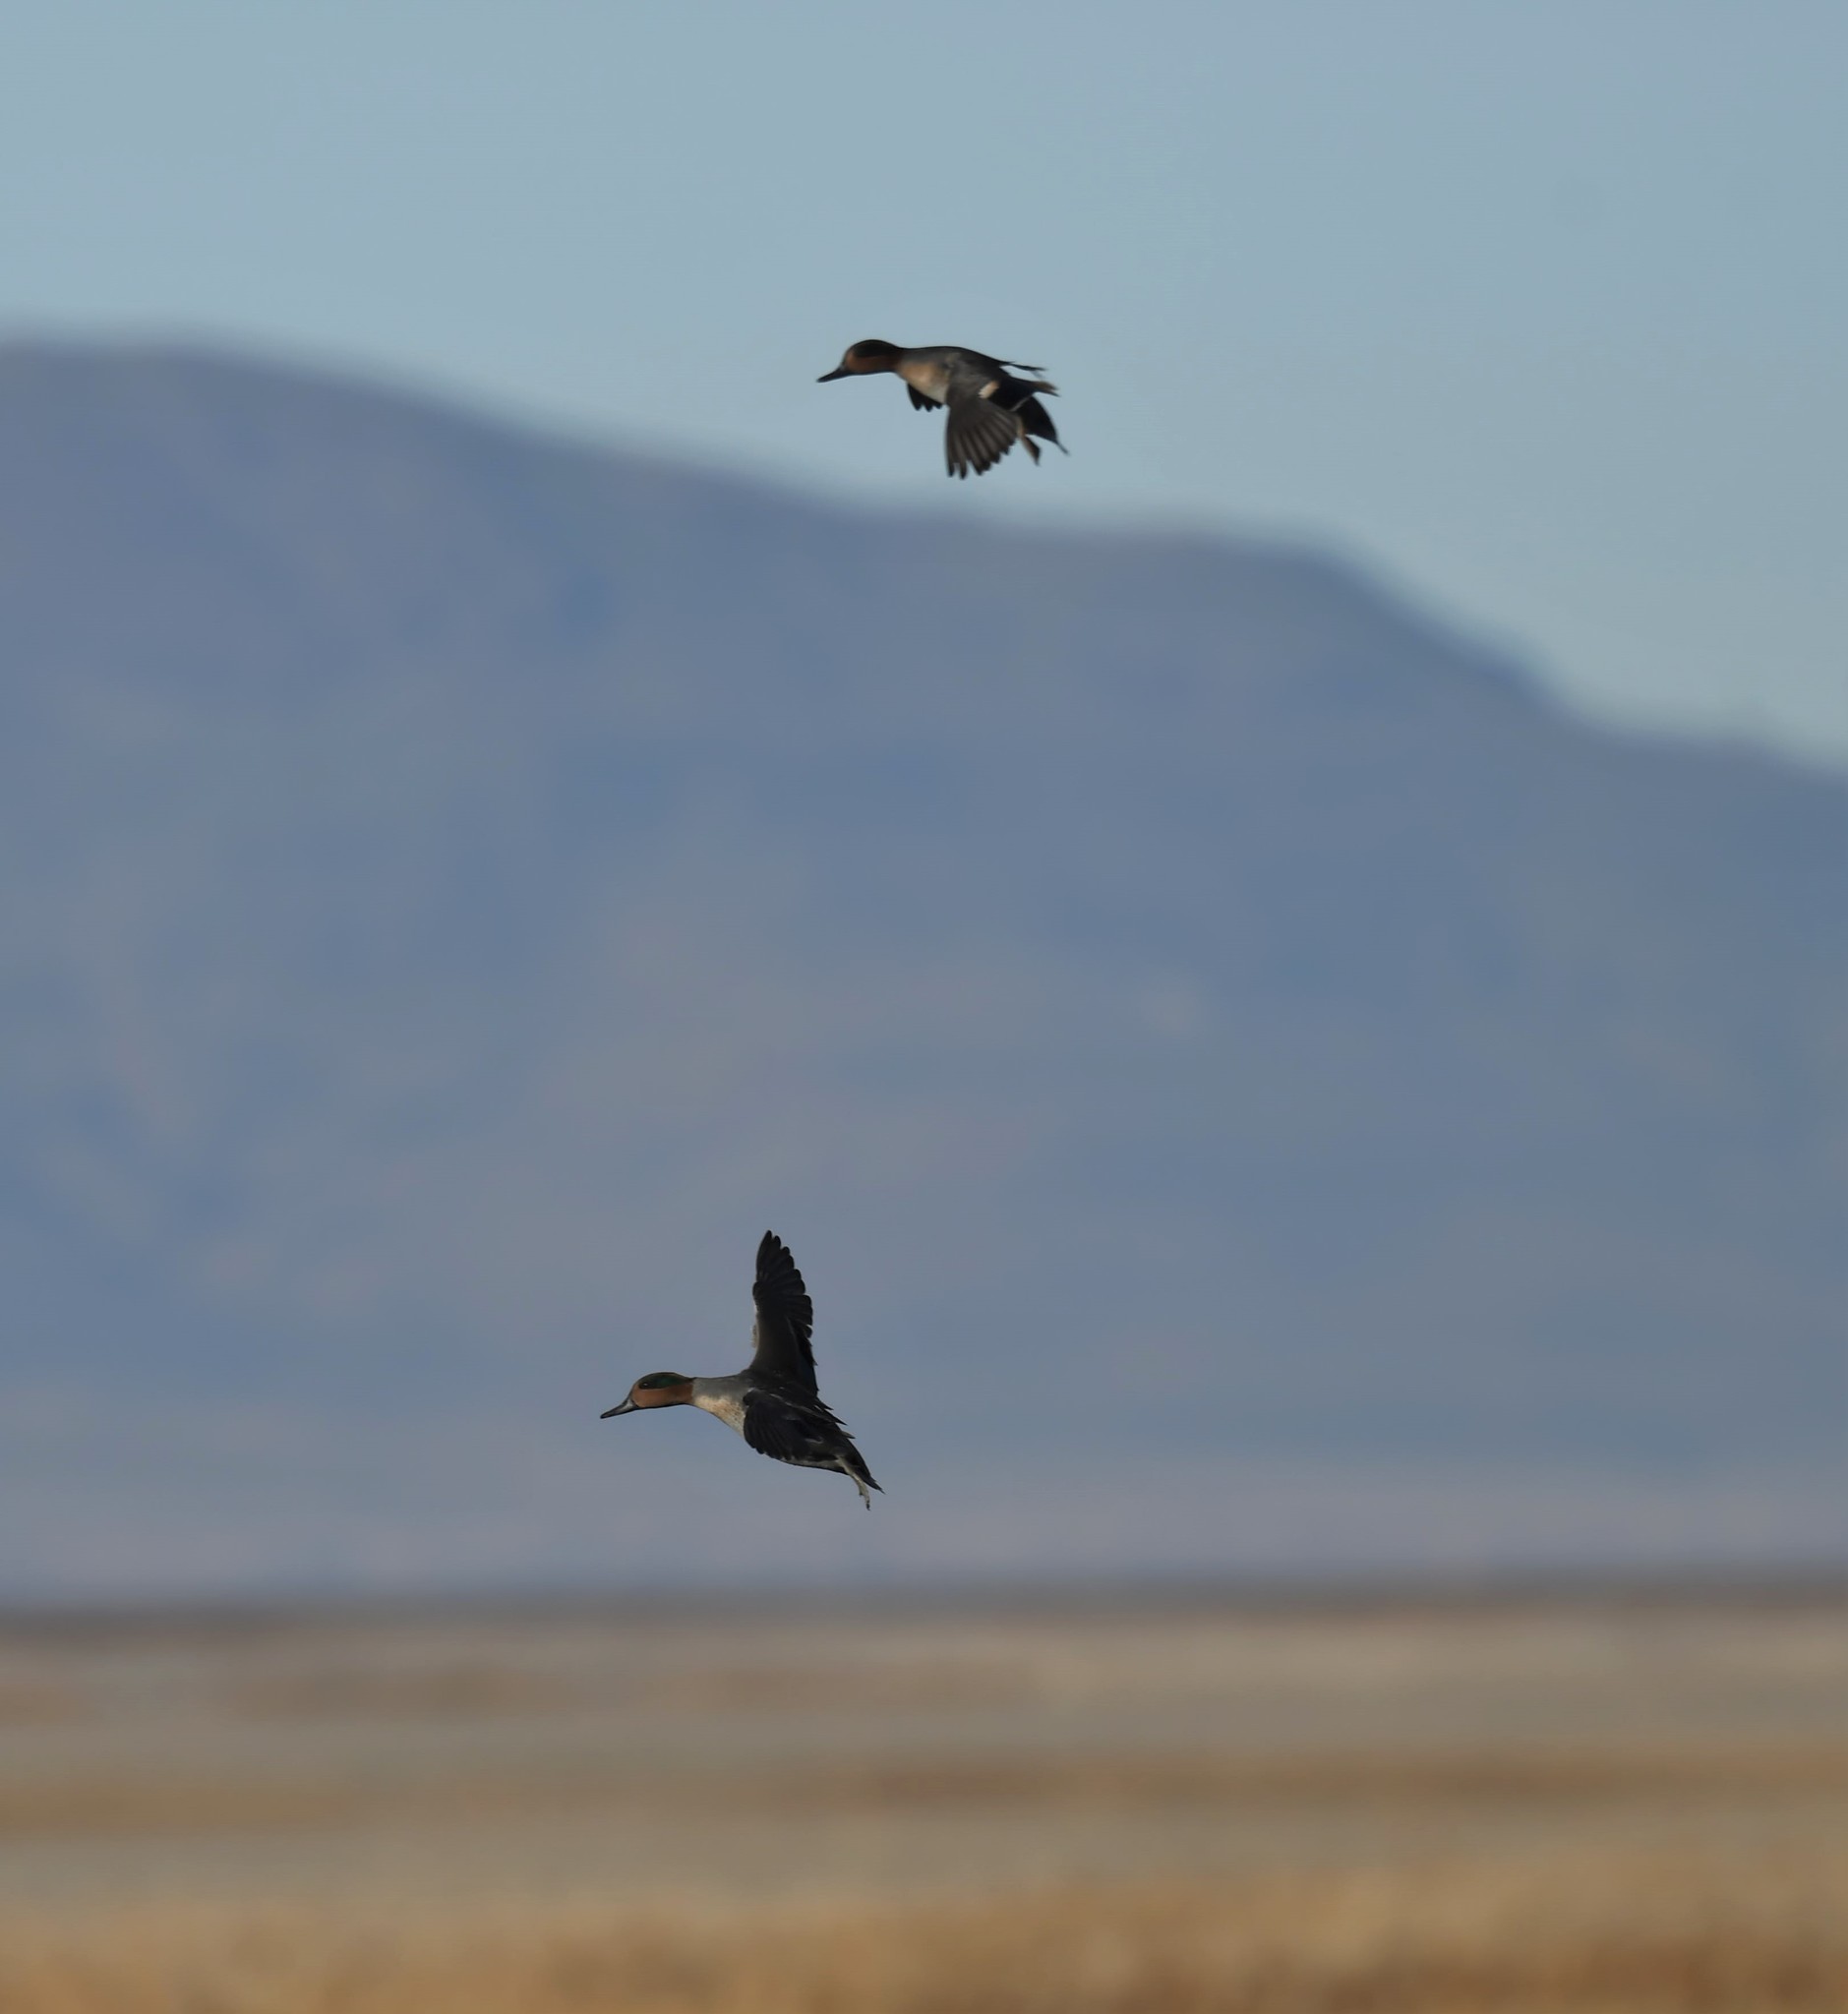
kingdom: Animalia
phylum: Chordata
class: Aves
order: Anseriformes
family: Anatidae
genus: Anas
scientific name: Anas crecca
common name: Eurasian teal
